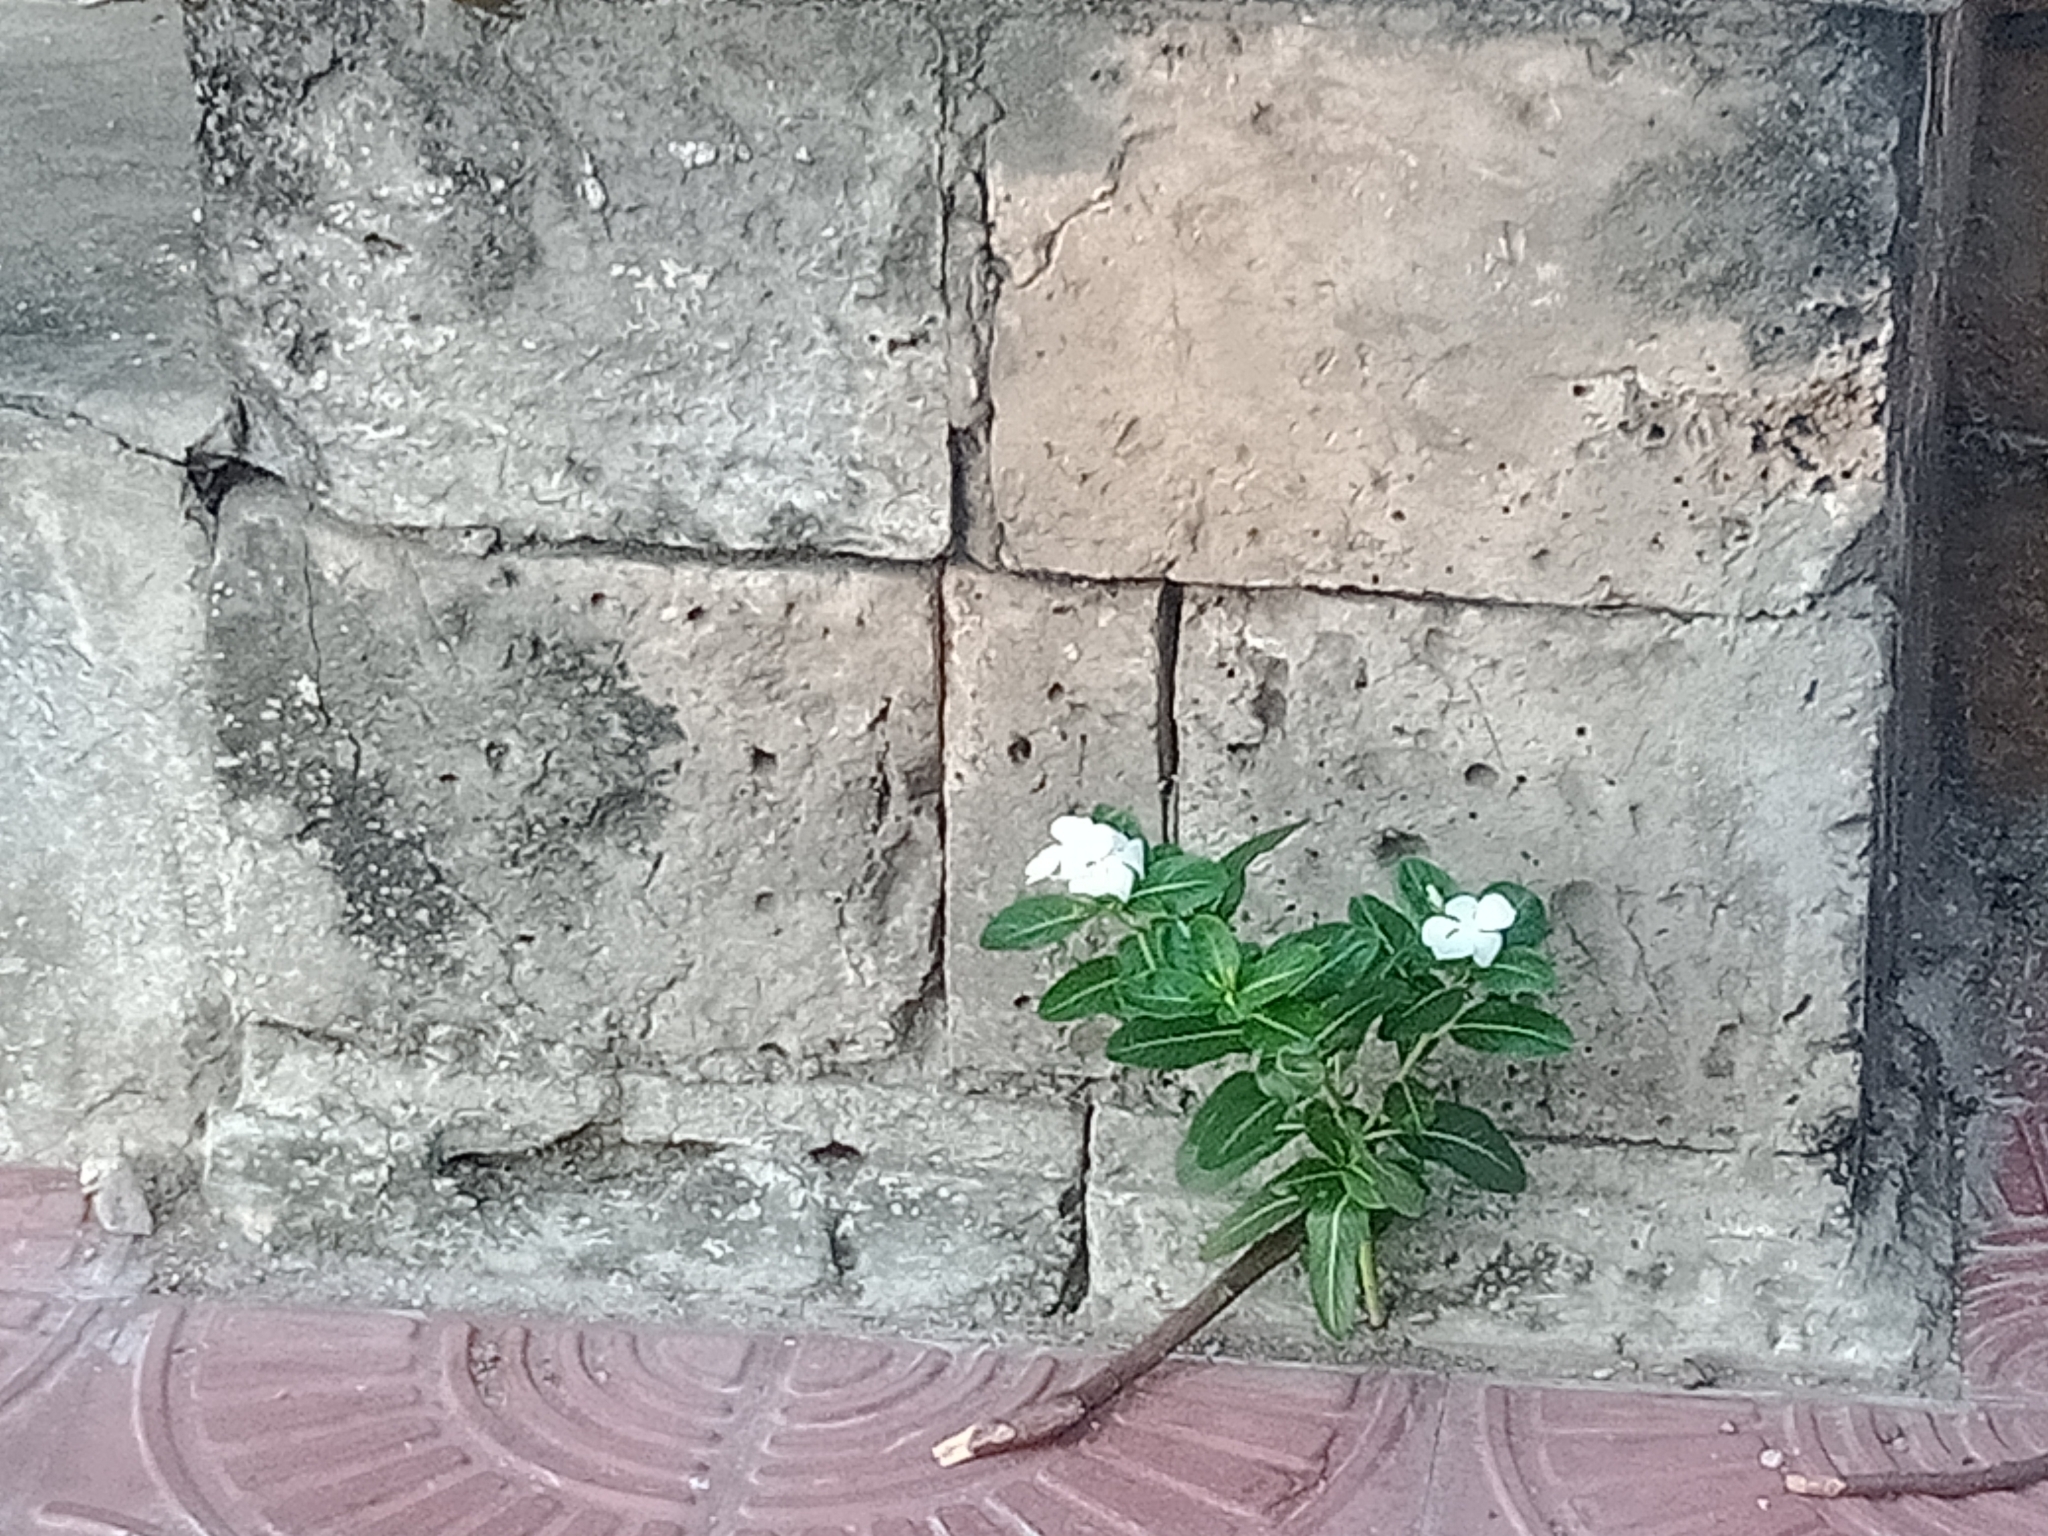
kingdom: Plantae
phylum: Tracheophyta
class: Magnoliopsida
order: Gentianales
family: Apocynaceae
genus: Catharanthus
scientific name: Catharanthus roseus
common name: Madagascar periwinkle
